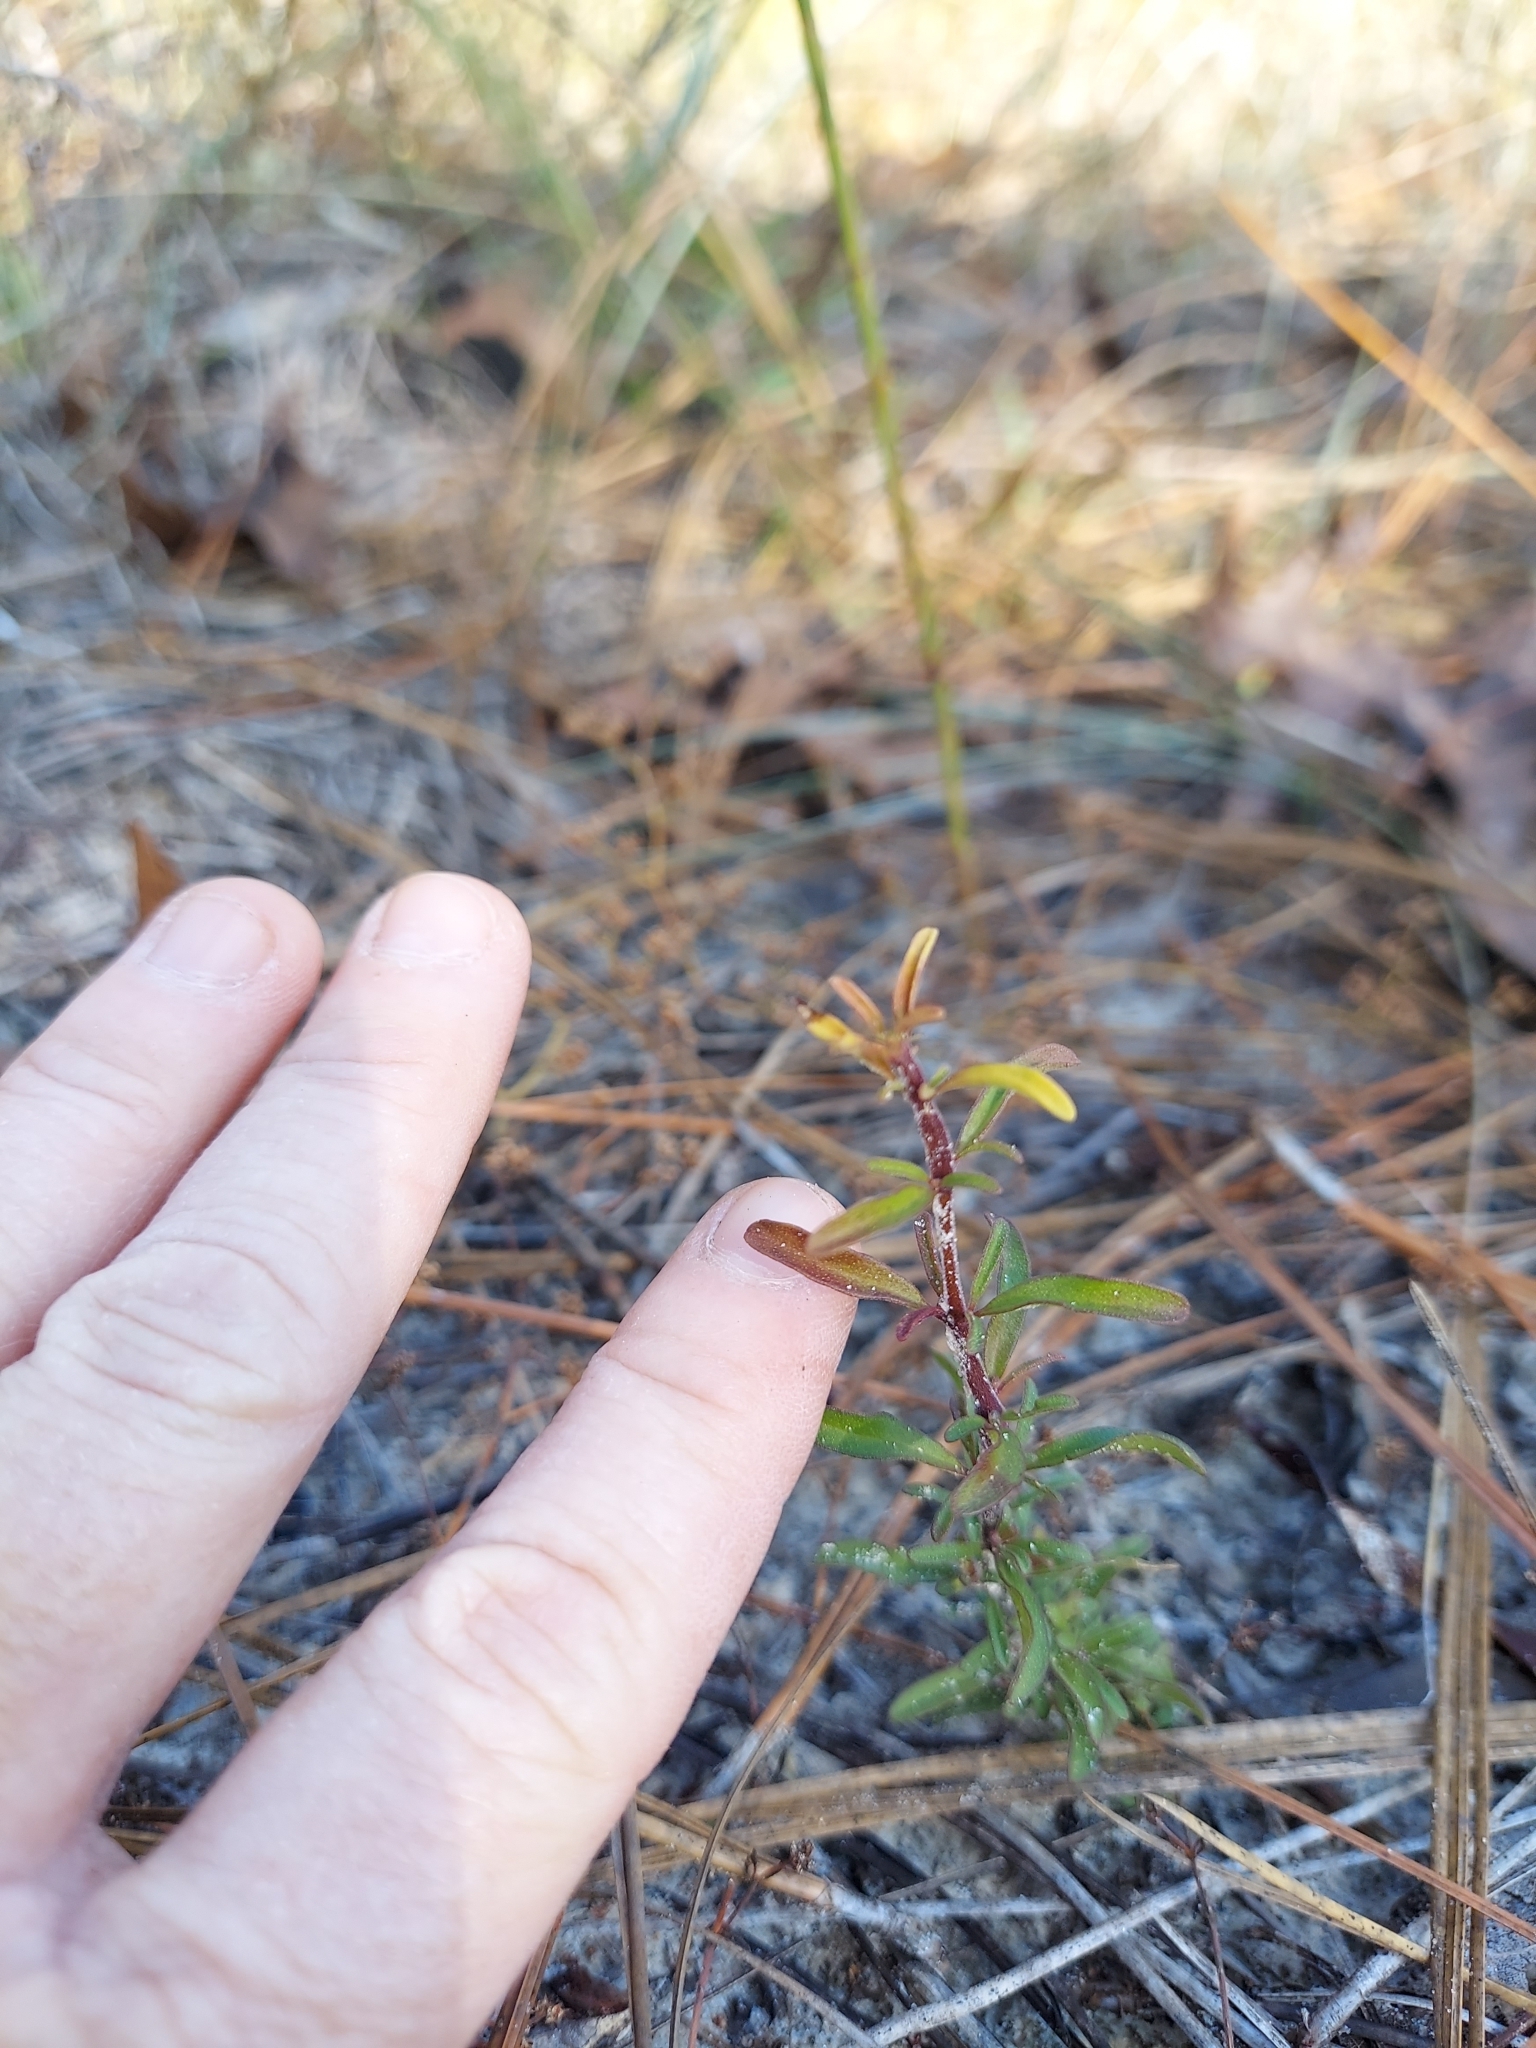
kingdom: Plantae
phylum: Tracheophyta
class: Magnoliopsida
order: Lamiales
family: Lamiaceae
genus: Trichostema
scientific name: Trichostema microphyllum
